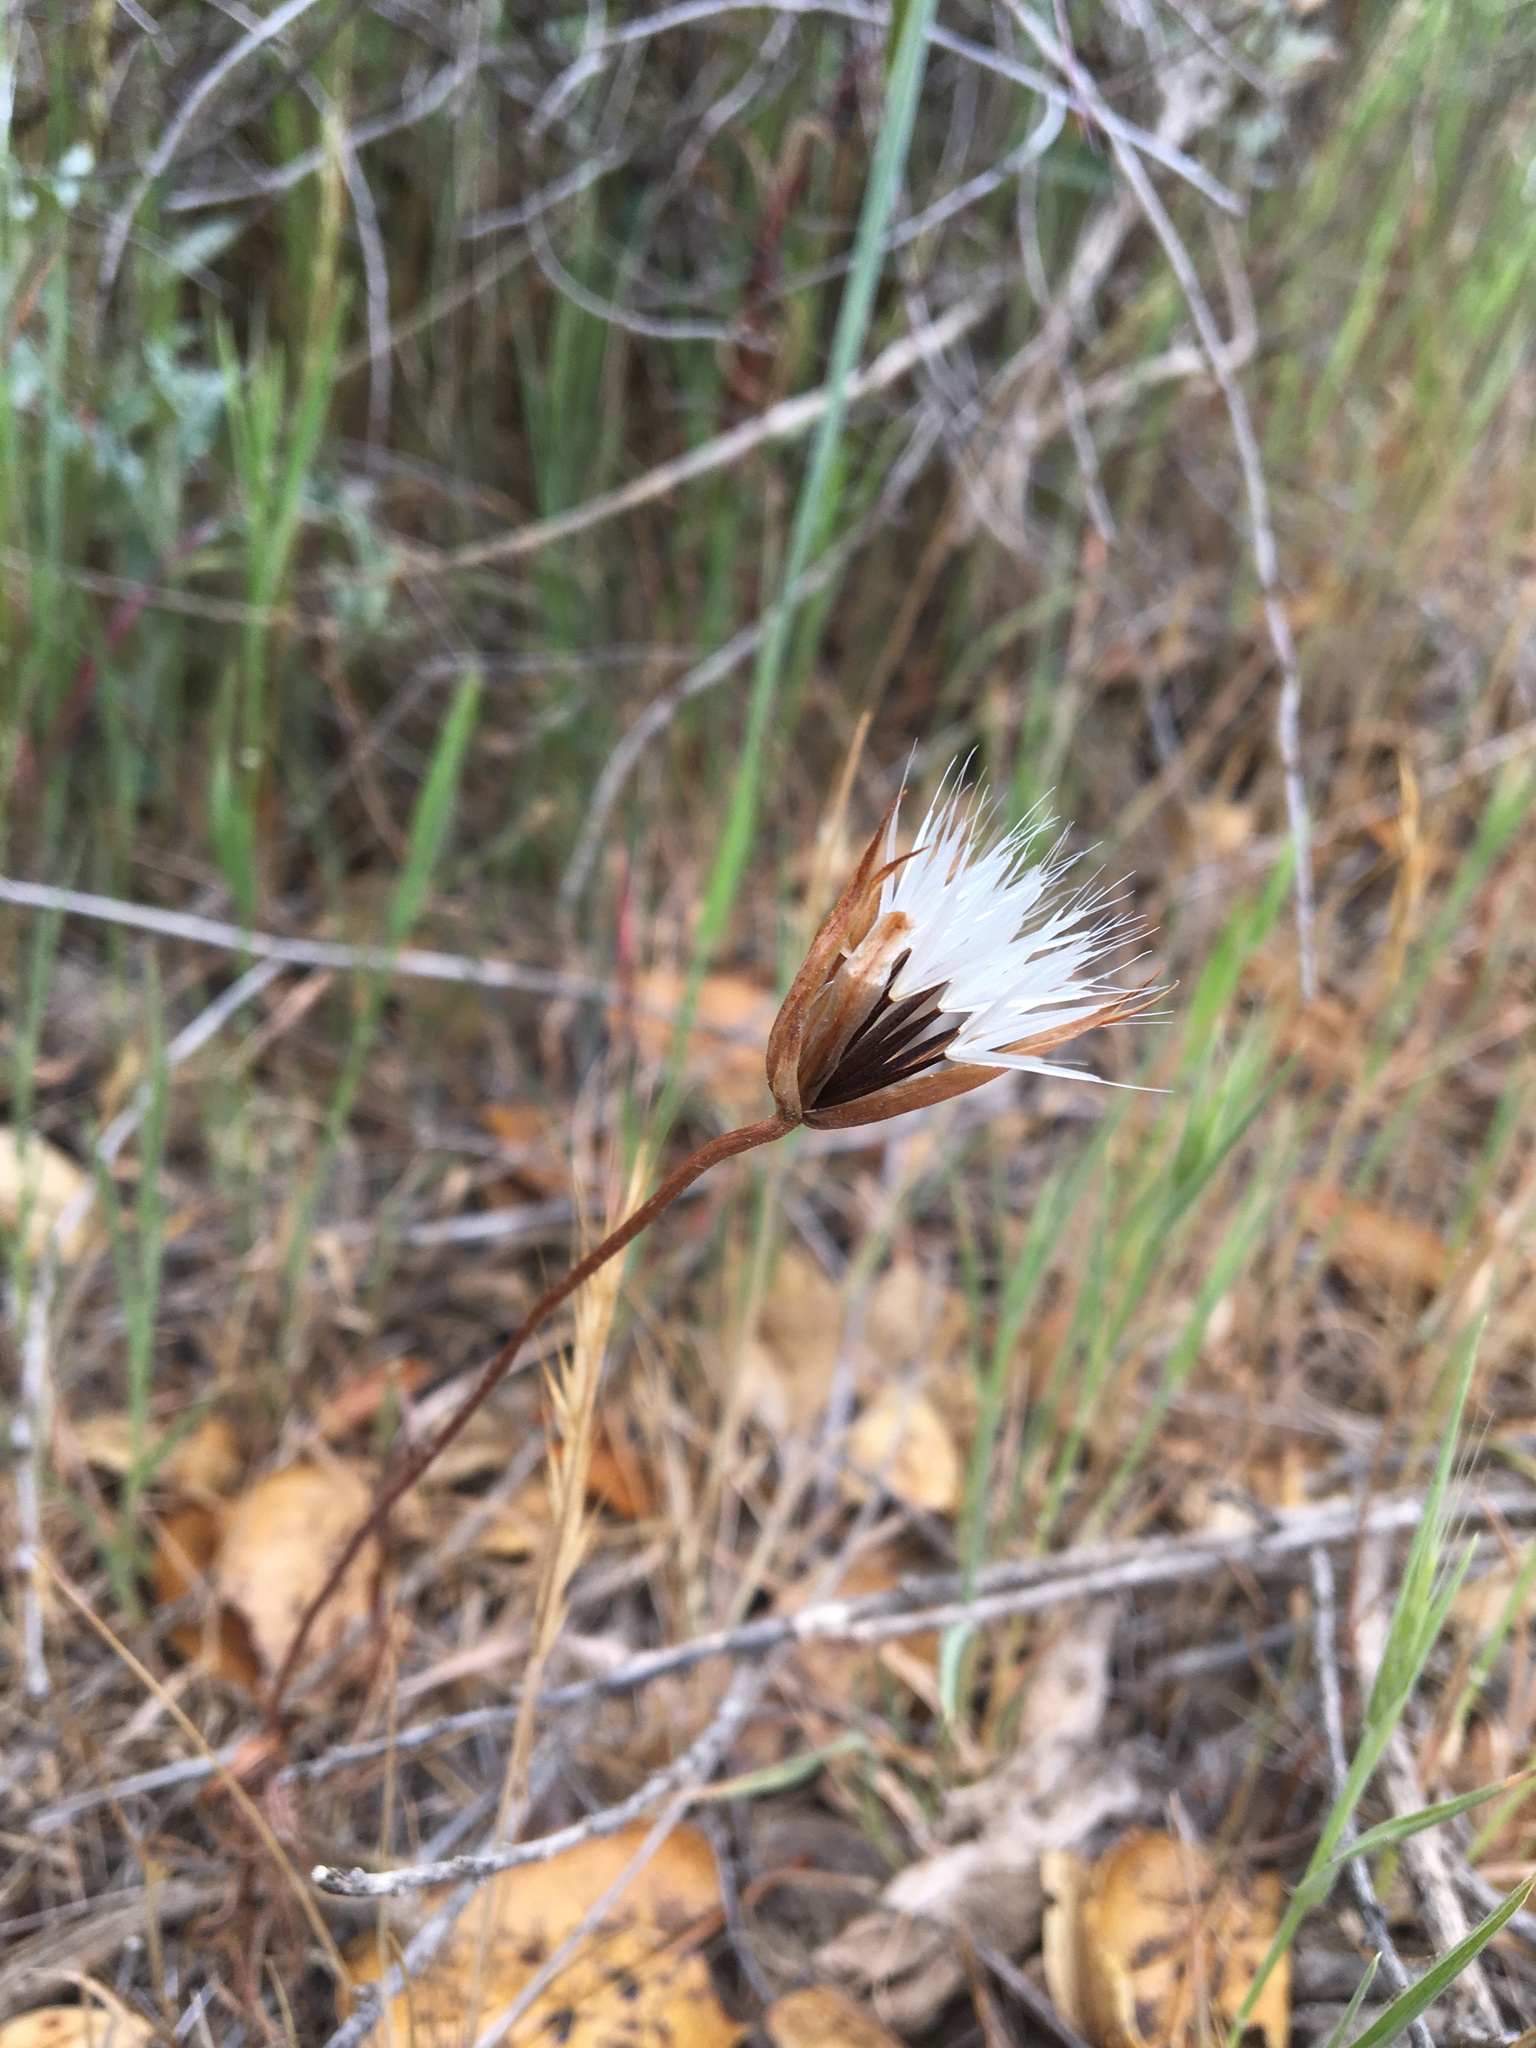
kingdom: Plantae
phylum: Tracheophyta
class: Magnoliopsida
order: Asterales
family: Asteraceae
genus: Microseris
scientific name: Microseris lindleyi
